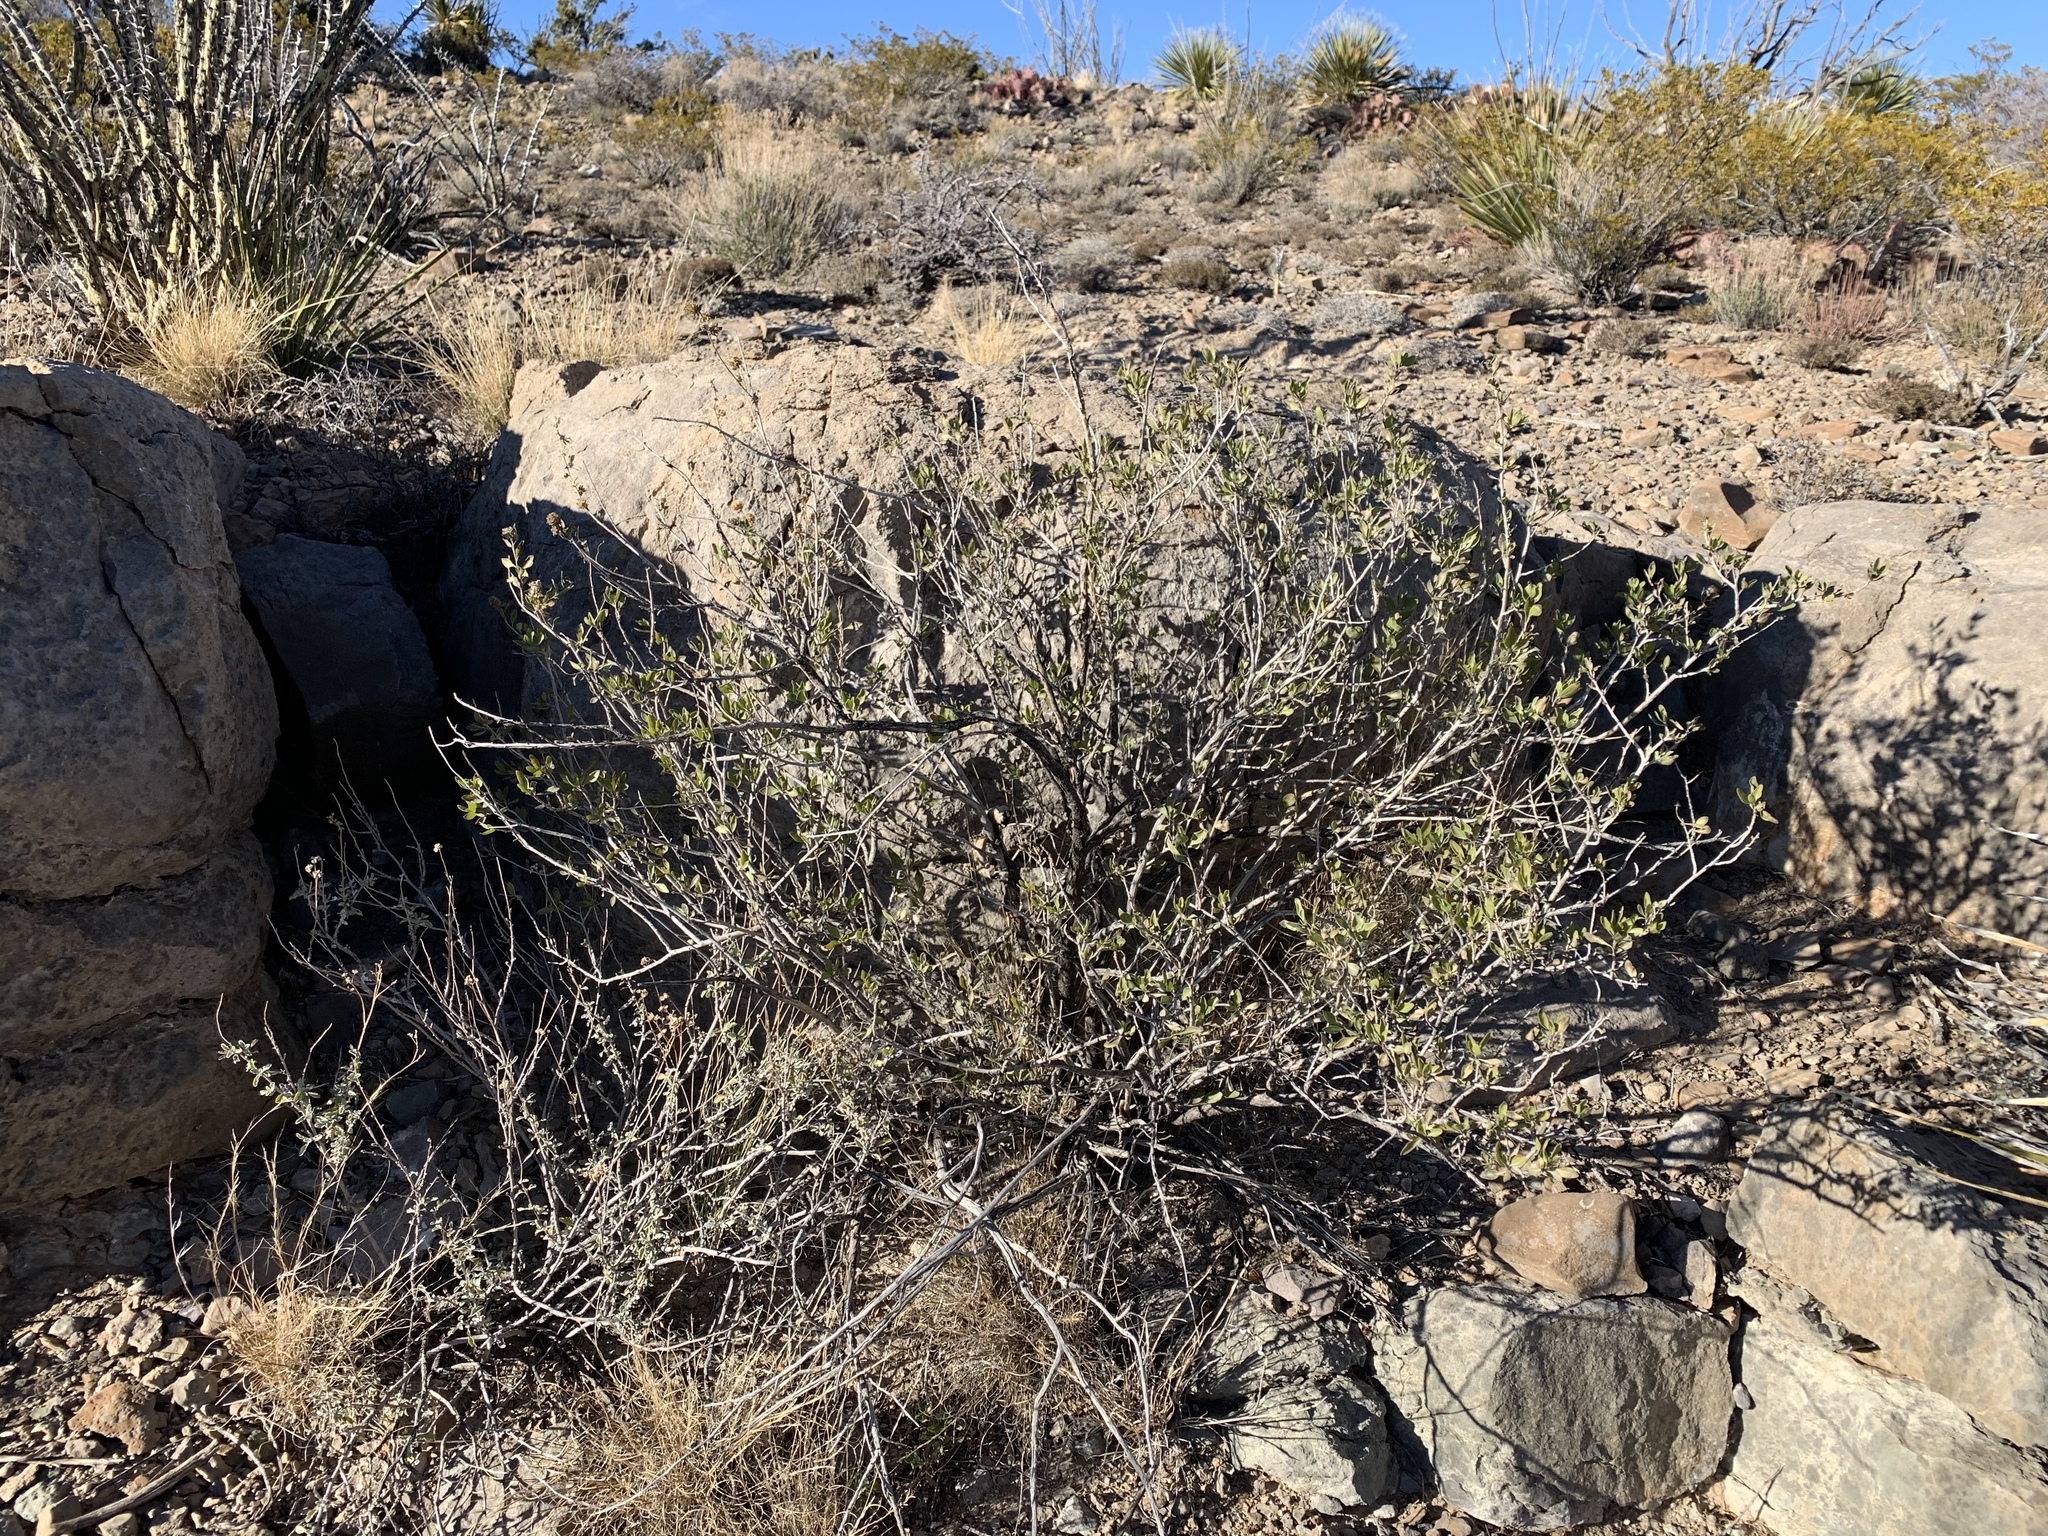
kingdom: Plantae
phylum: Tracheophyta
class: Magnoliopsida
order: Asterales
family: Asteraceae
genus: Flourensia
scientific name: Flourensia cernua
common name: Varnishbush
